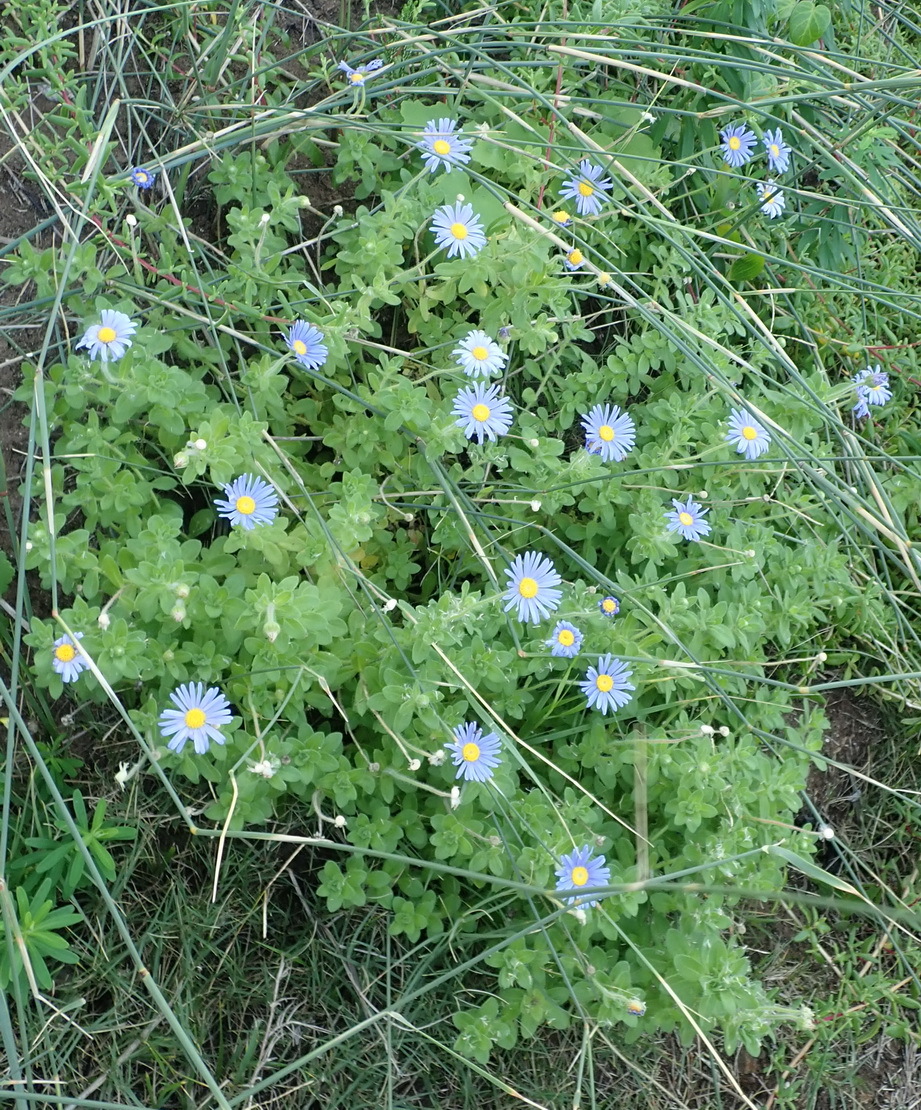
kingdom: Plantae
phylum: Tracheophyta
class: Magnoliopsida
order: Asterales
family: Asteraceae
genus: Felicia
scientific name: Felicia amoena
